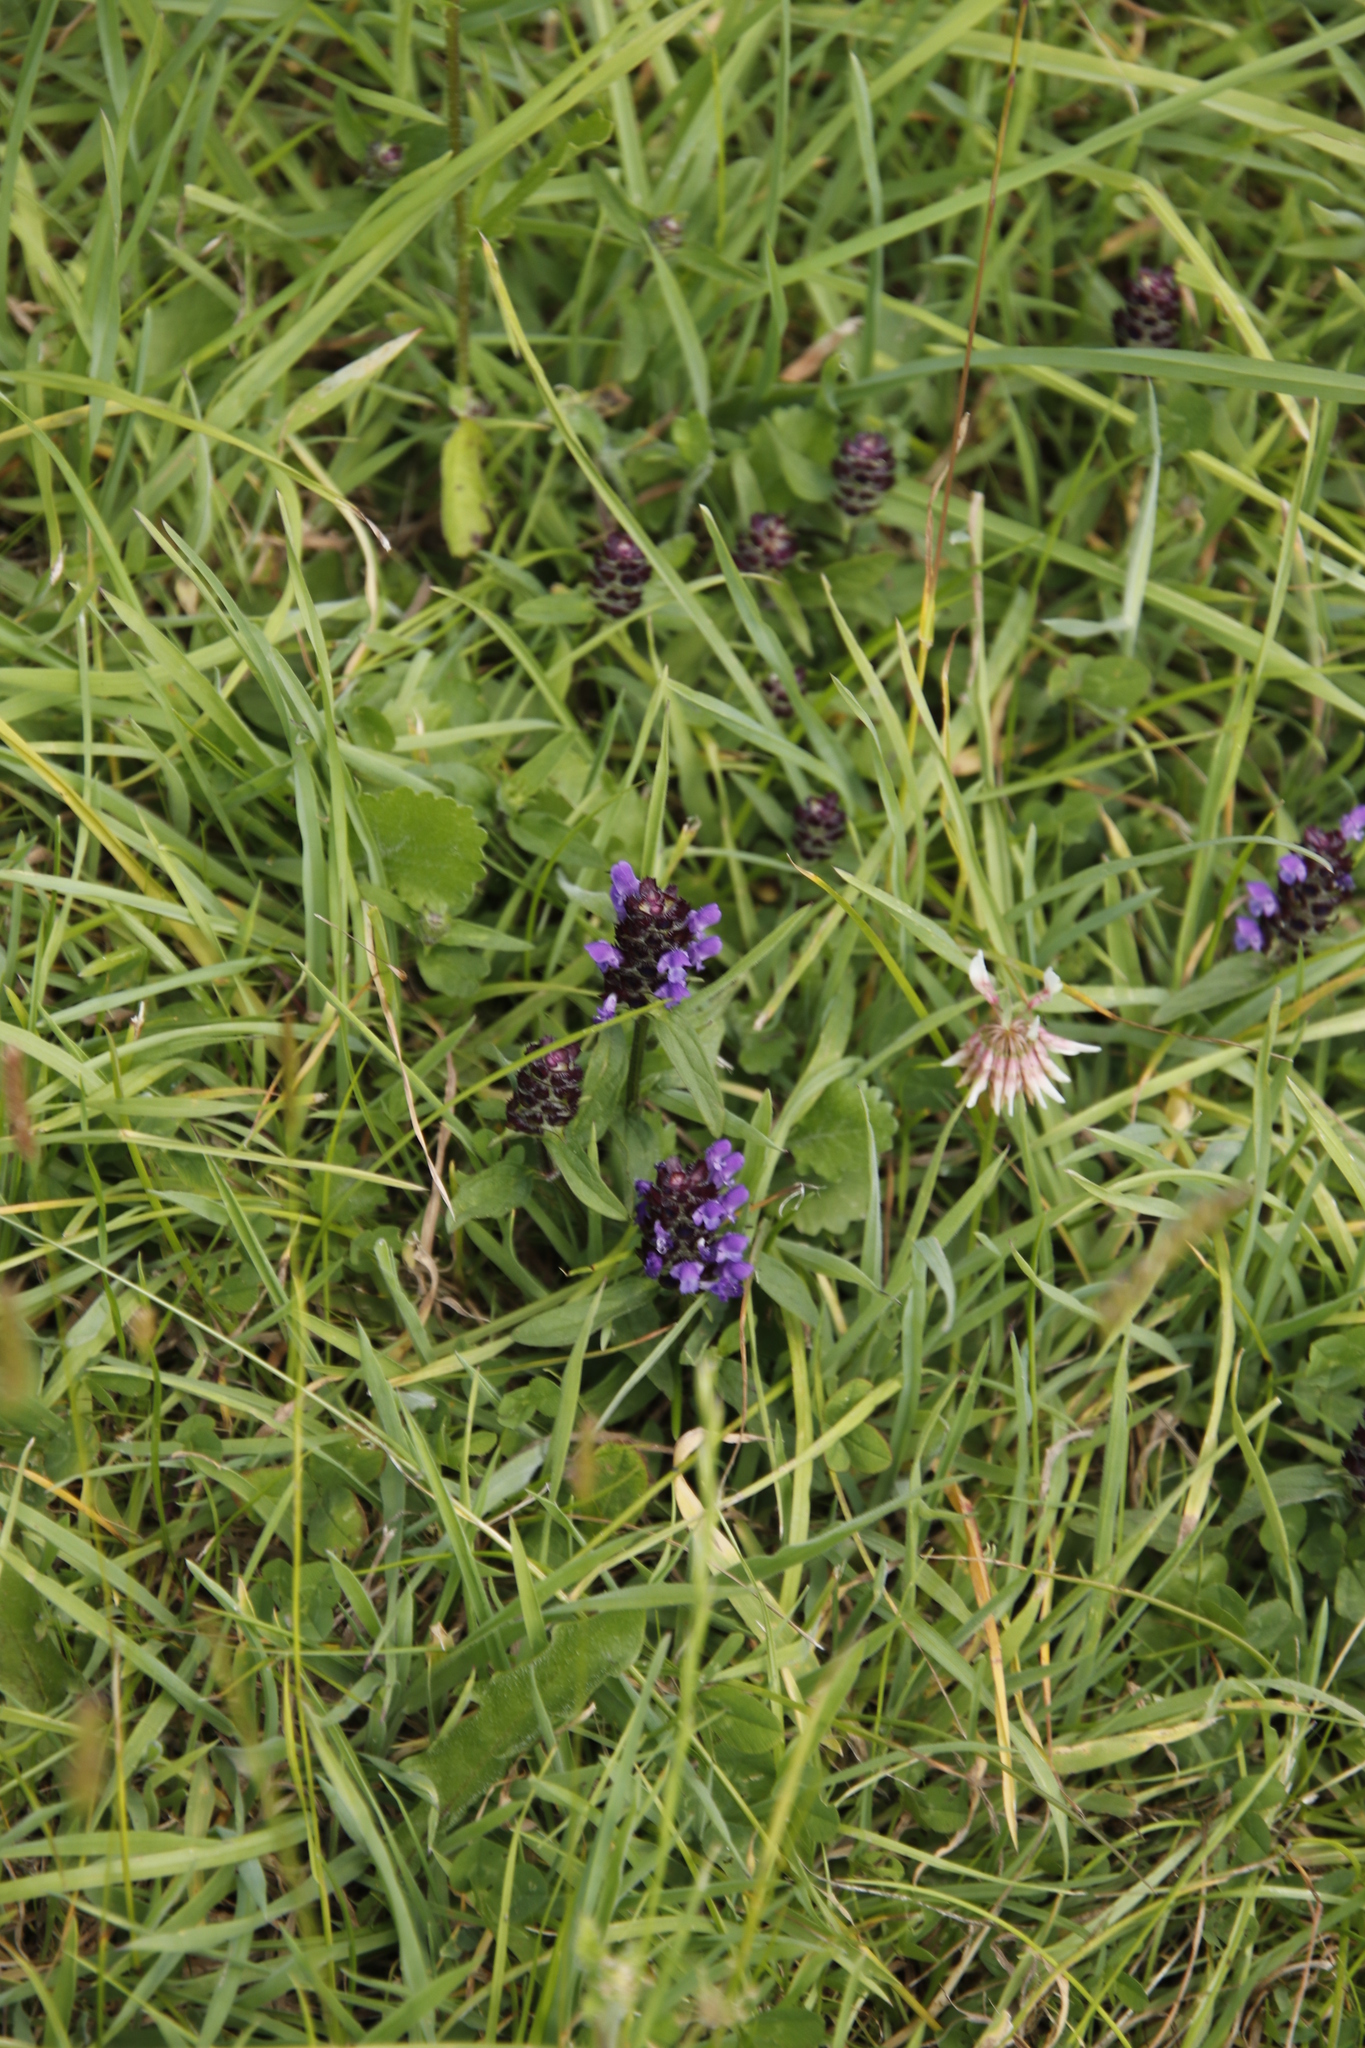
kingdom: Plantae
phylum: Tracheophyta
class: Magnoliopsida
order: Lamiales
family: Lamiaceae
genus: Prunella
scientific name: Prunella vulgaris
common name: Heal-all
